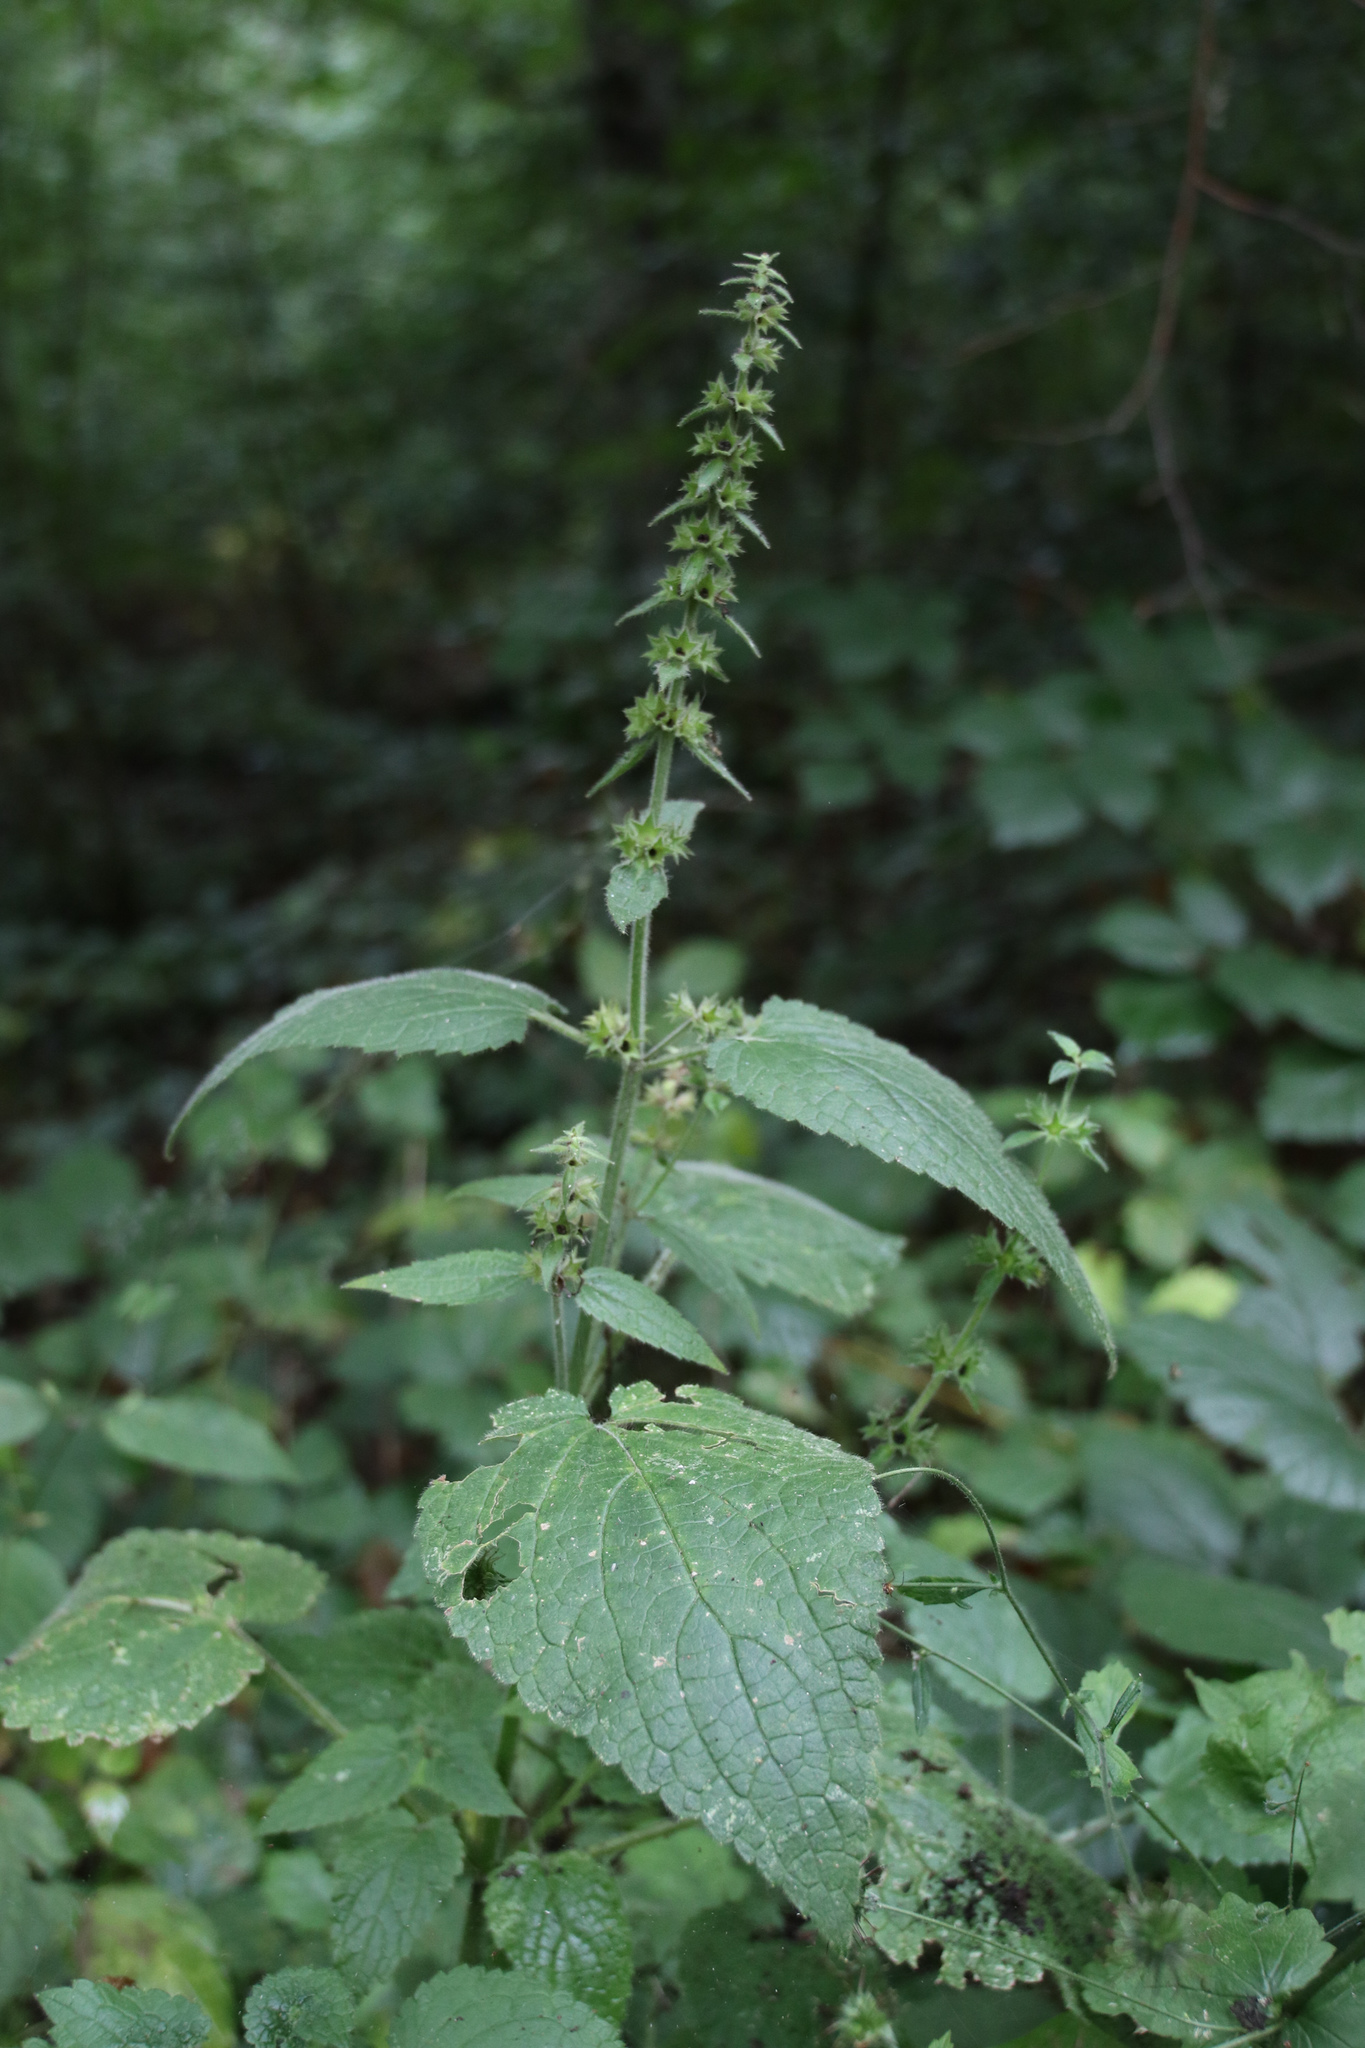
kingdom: Plantae
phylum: Tracheophyta
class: Magnoliopsida
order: Lamiales
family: Lamiaceae
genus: Stachys
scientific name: Stachys sylvatica
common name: Hedge woundwort
